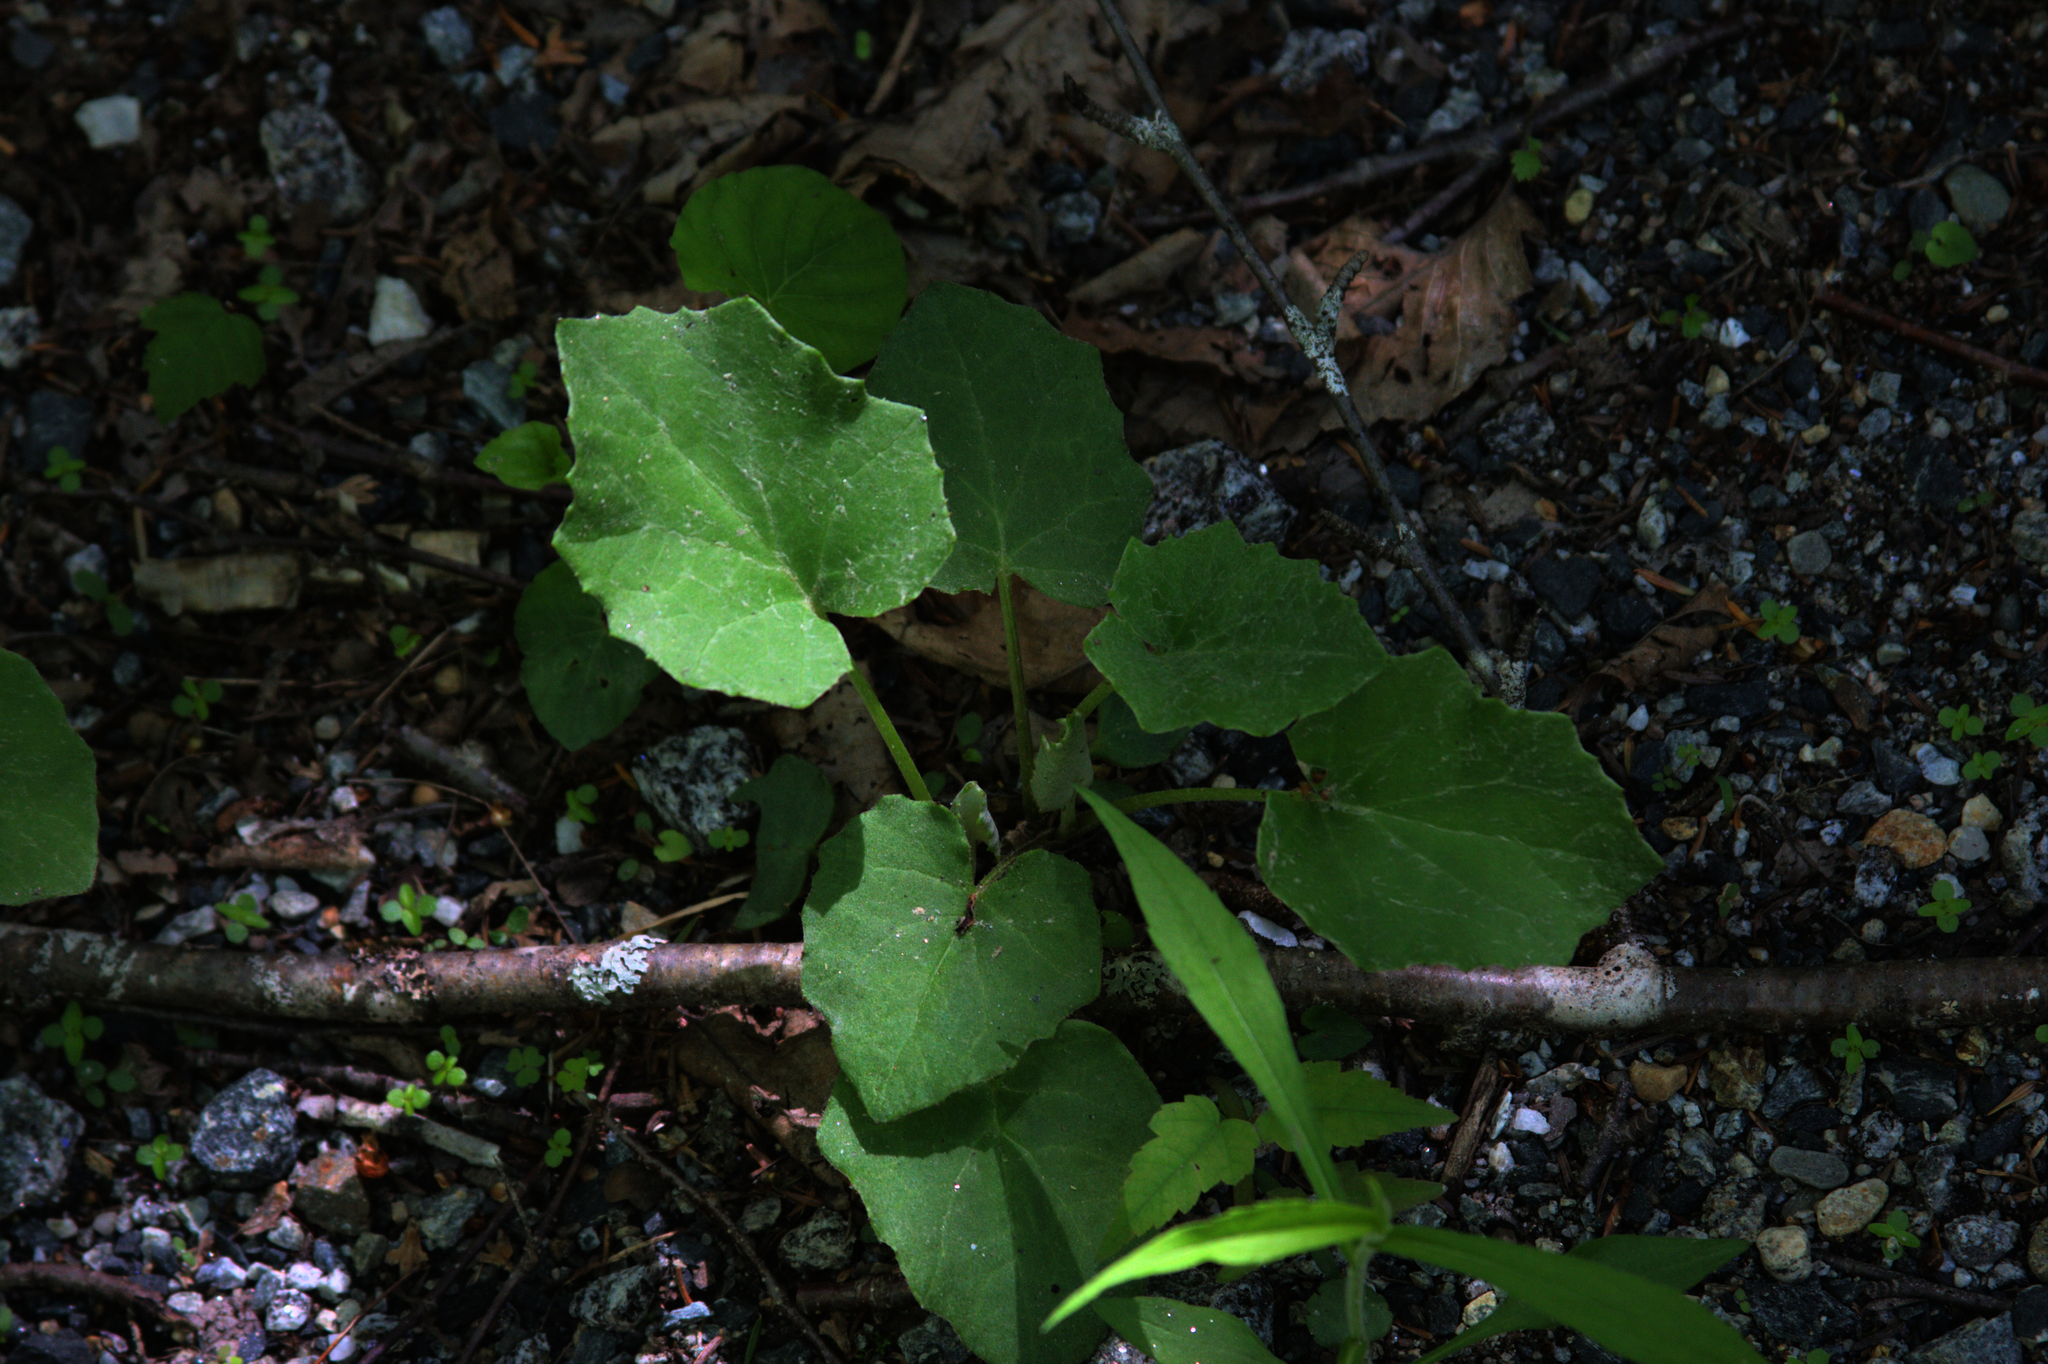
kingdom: Plantae
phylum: Tracheophyta
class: Magnoliopsida
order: Asterales
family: Asteraceae
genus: Tussilago
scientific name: Tussilago farfara
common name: Coltsfoot
